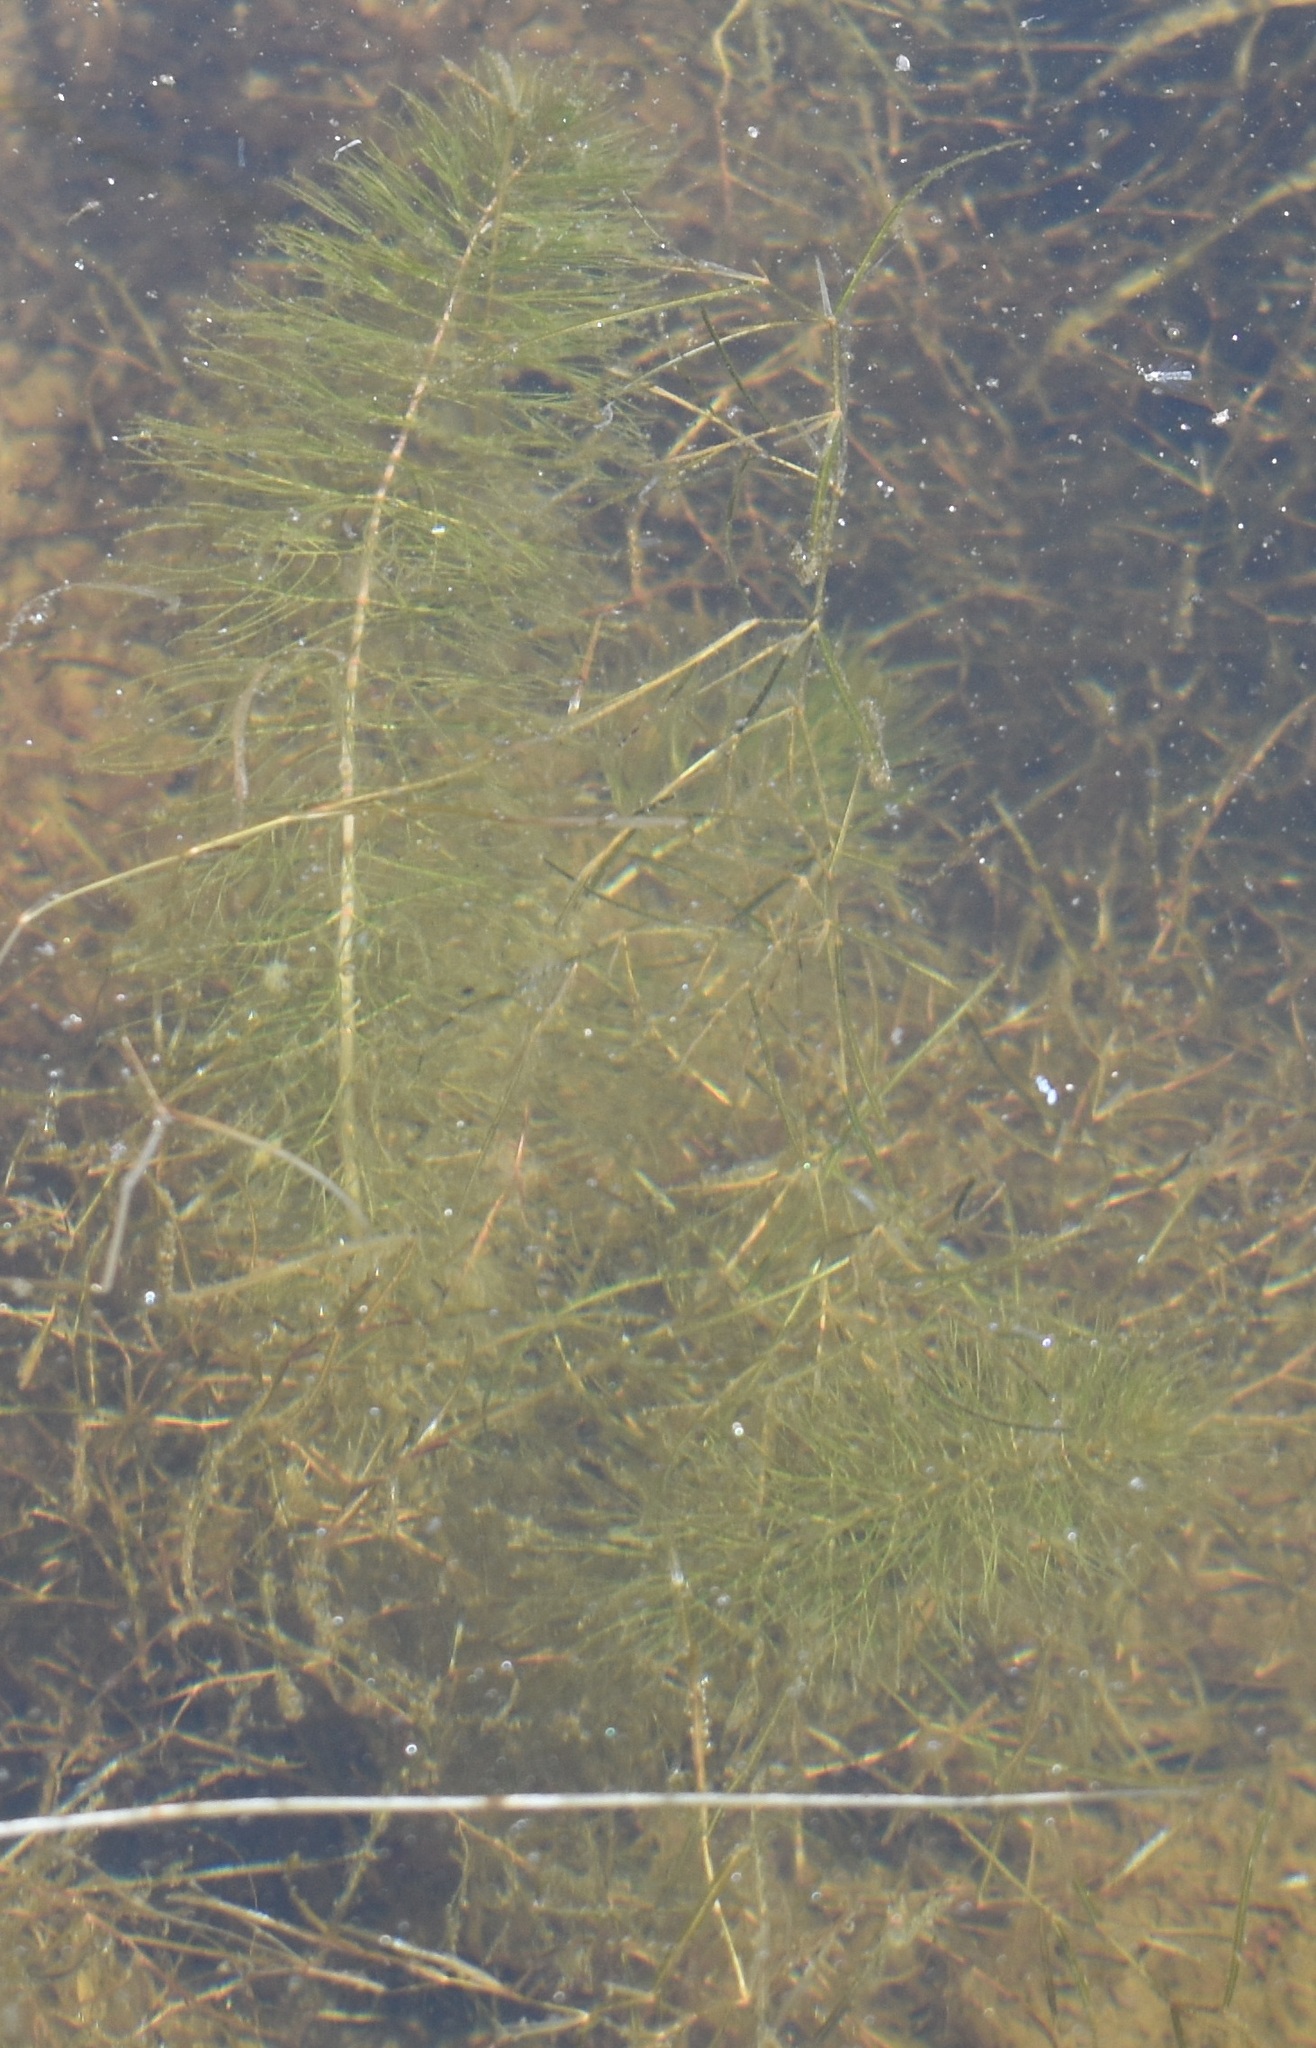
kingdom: Plantae
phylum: Tracheophyta
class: Magnoliopsida
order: Saxifragales
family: Haloragaceae
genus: Myriophyllum
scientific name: Myriophyllum verticillatum
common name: Whorled water-milfoil
